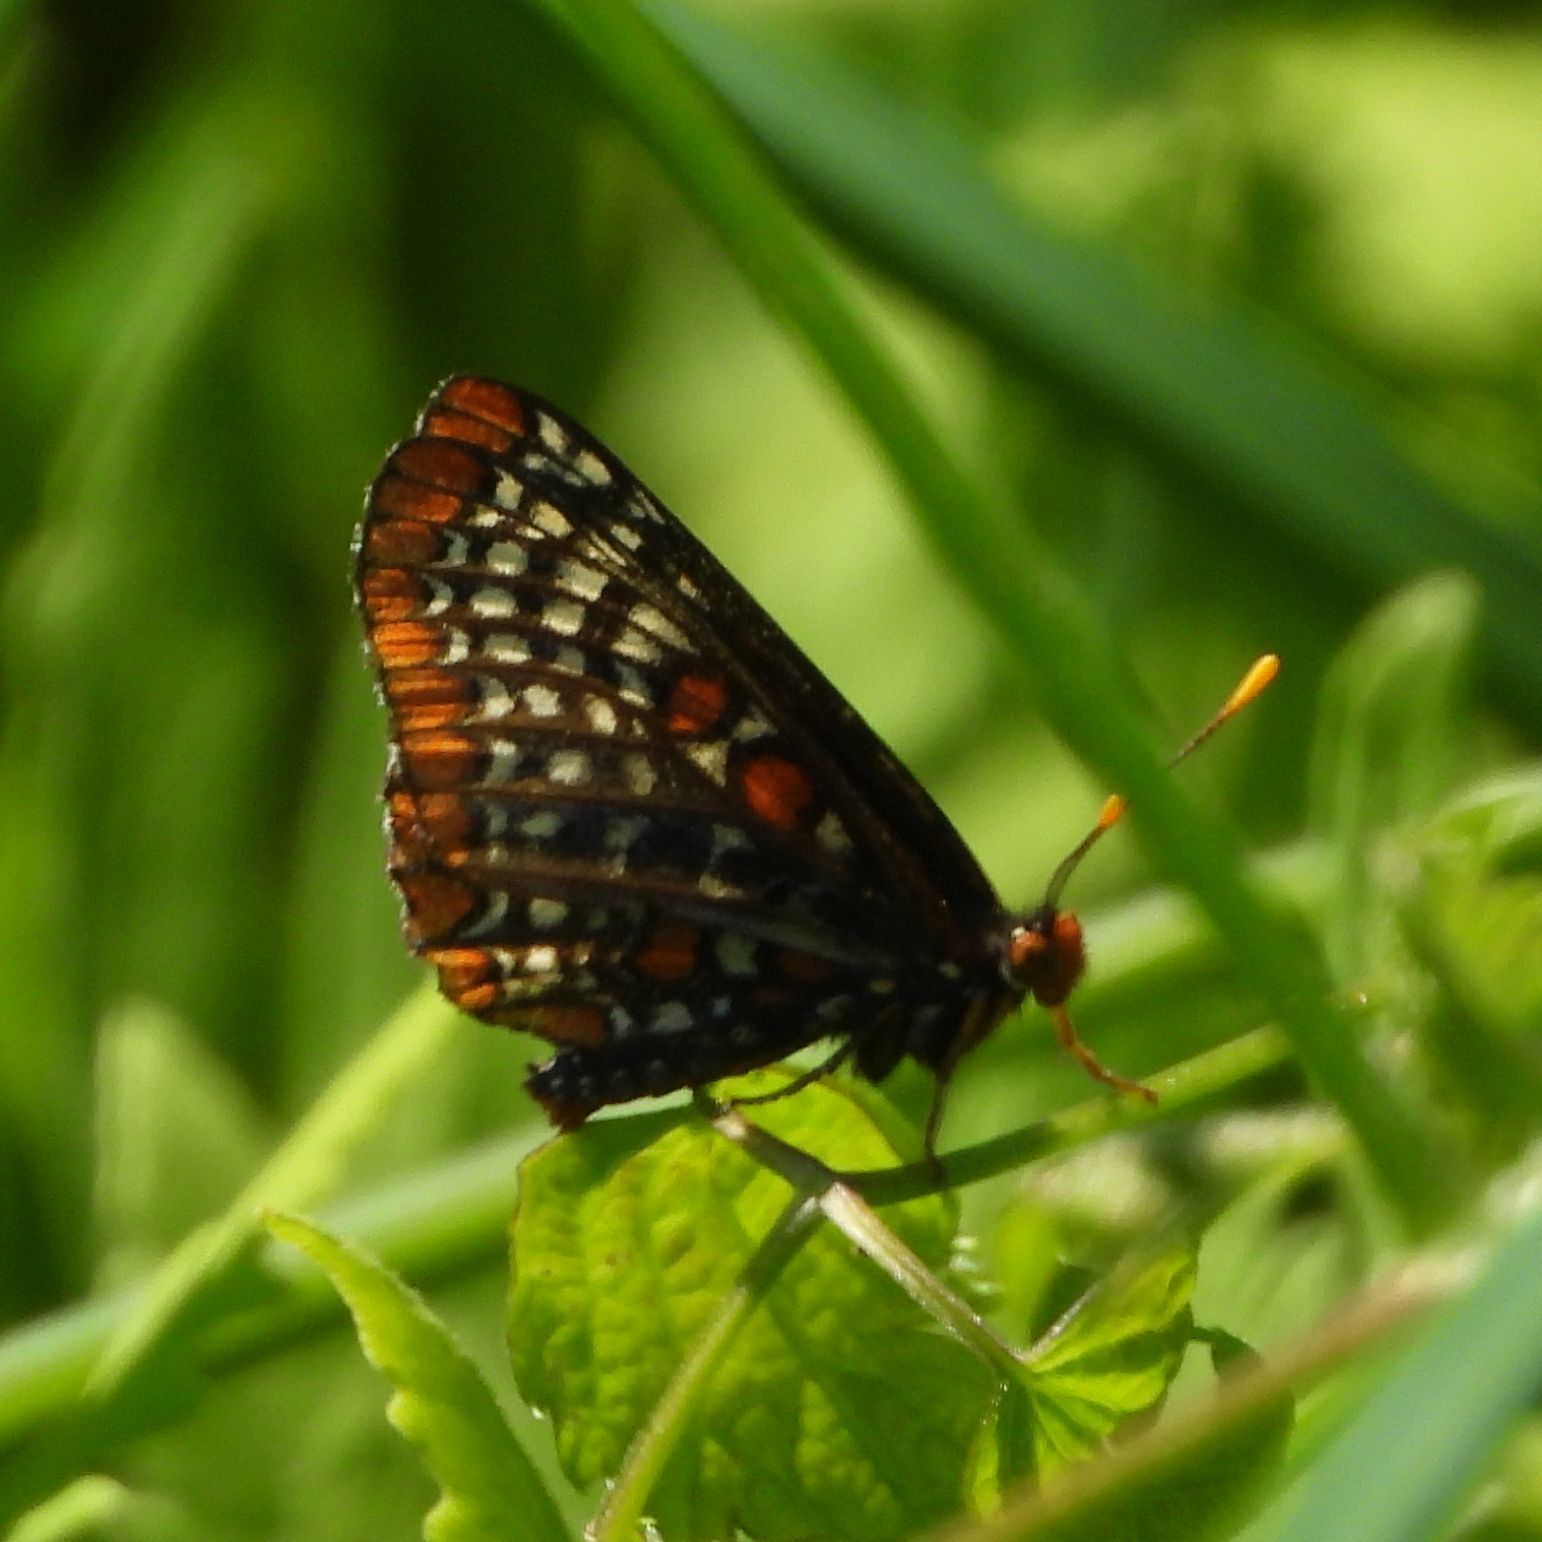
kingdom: Animalia
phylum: Arthropoda
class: Insecta
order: Lepidoptera
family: Nymphalidae
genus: Euphydryas
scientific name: Euphydryas phaeton
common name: Baltimore checkerspot
